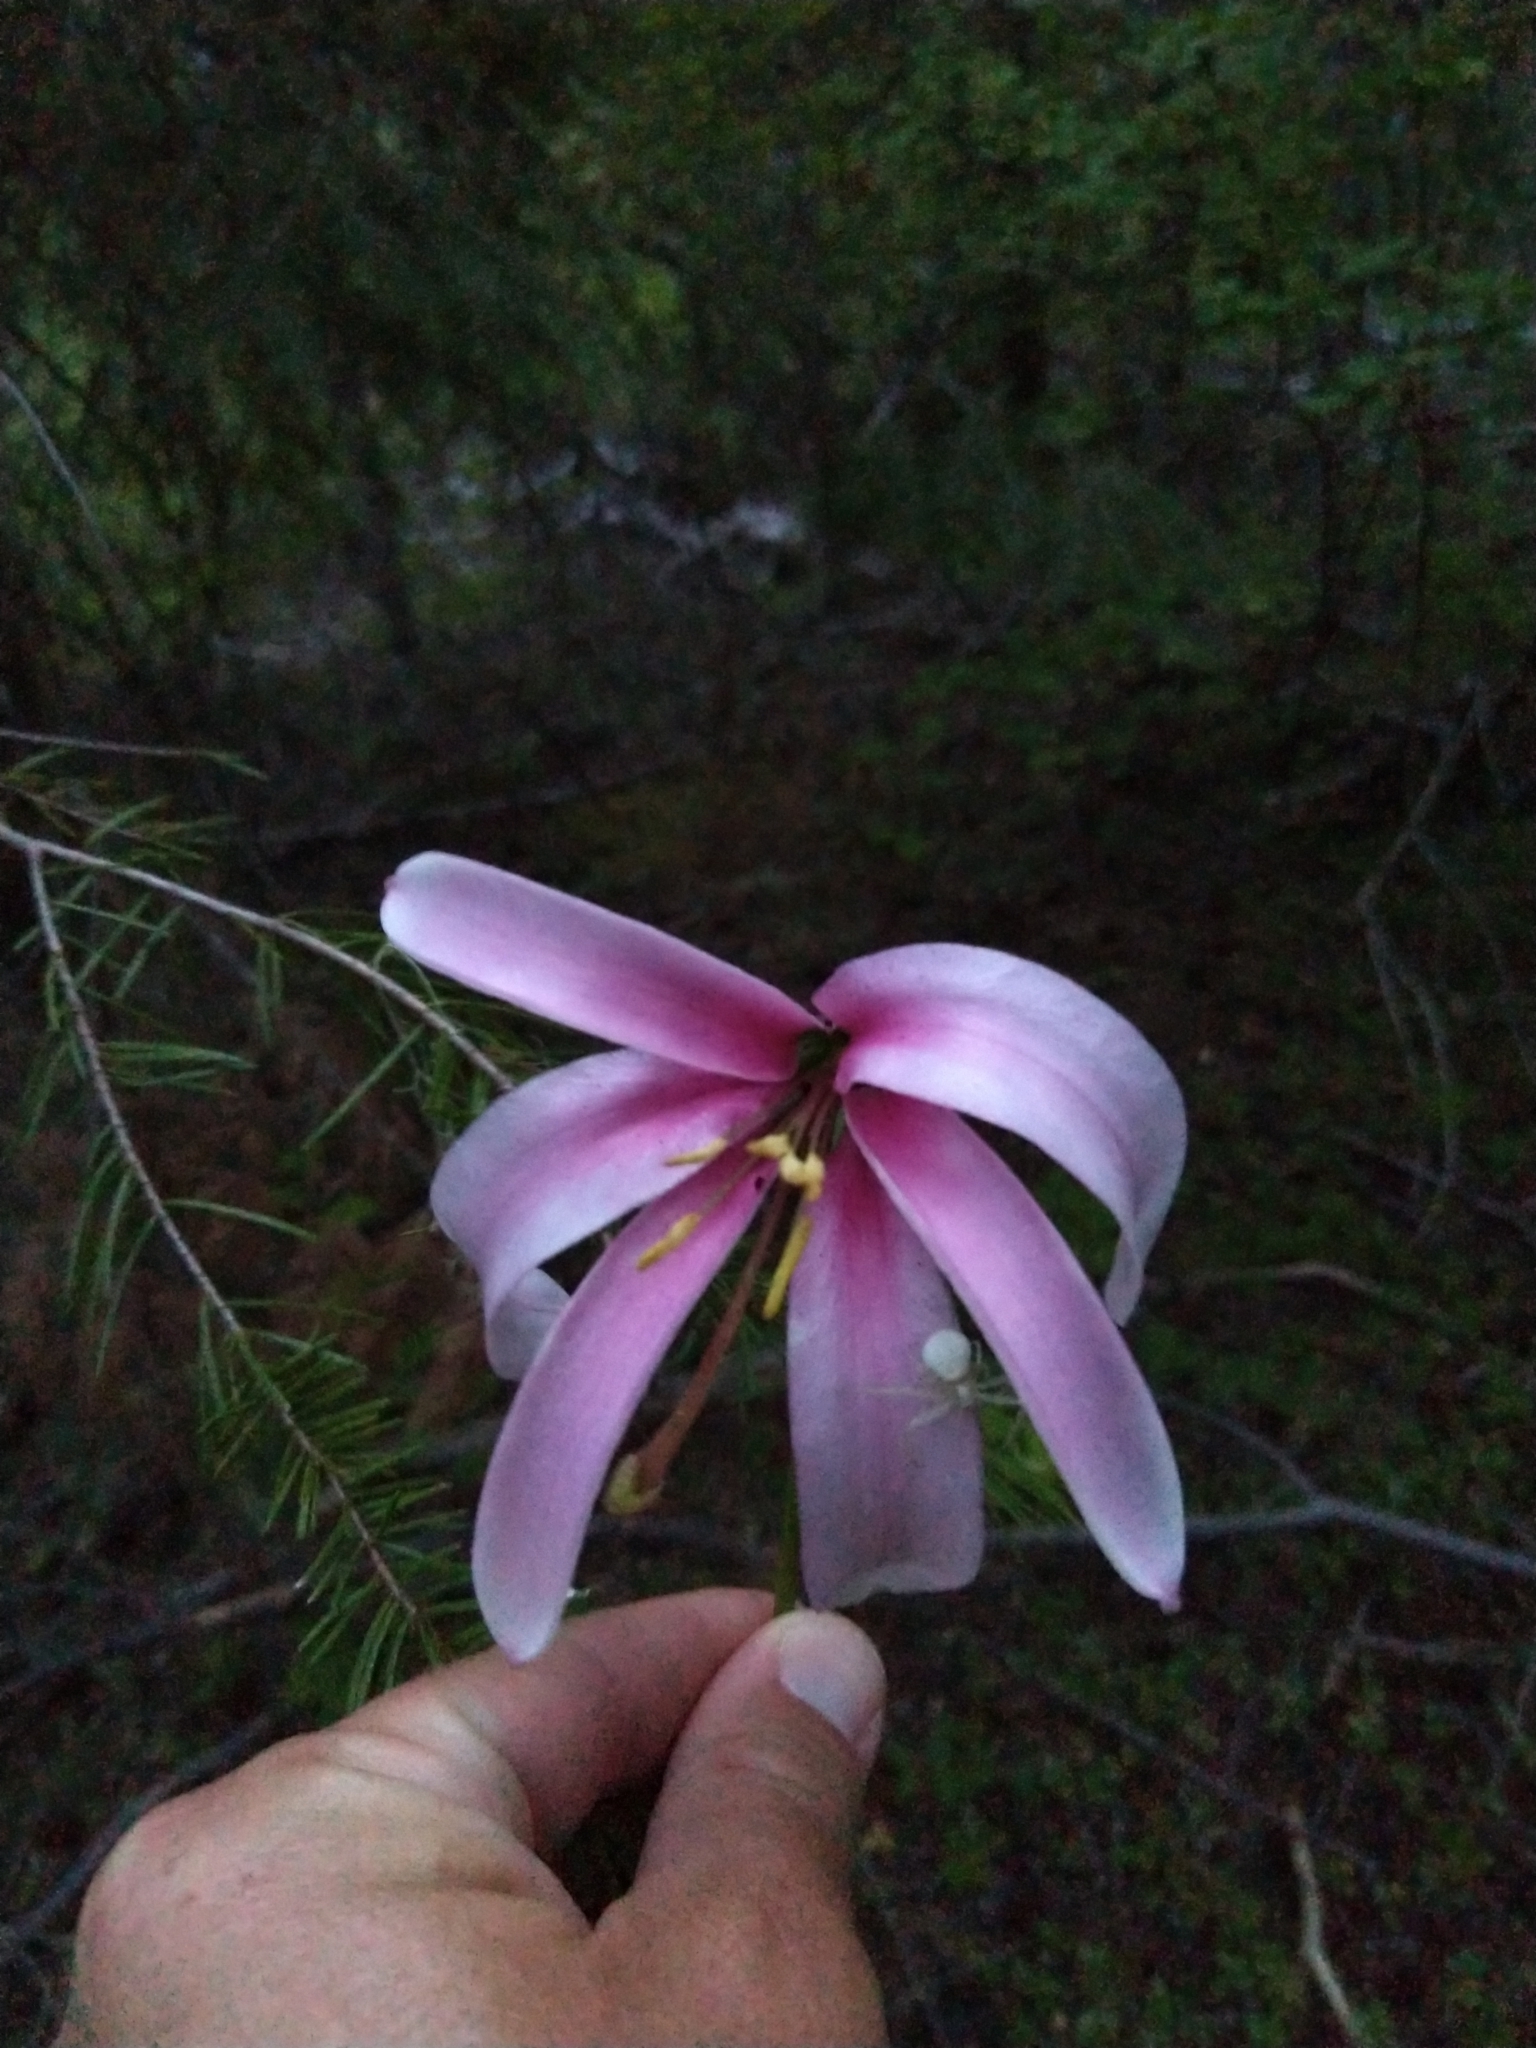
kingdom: Plantae
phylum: Tracheophyta
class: Liliopsida
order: Liliales
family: Liliaceae
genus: Lilium
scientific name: Lilium washingtonianum
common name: Washington lily
